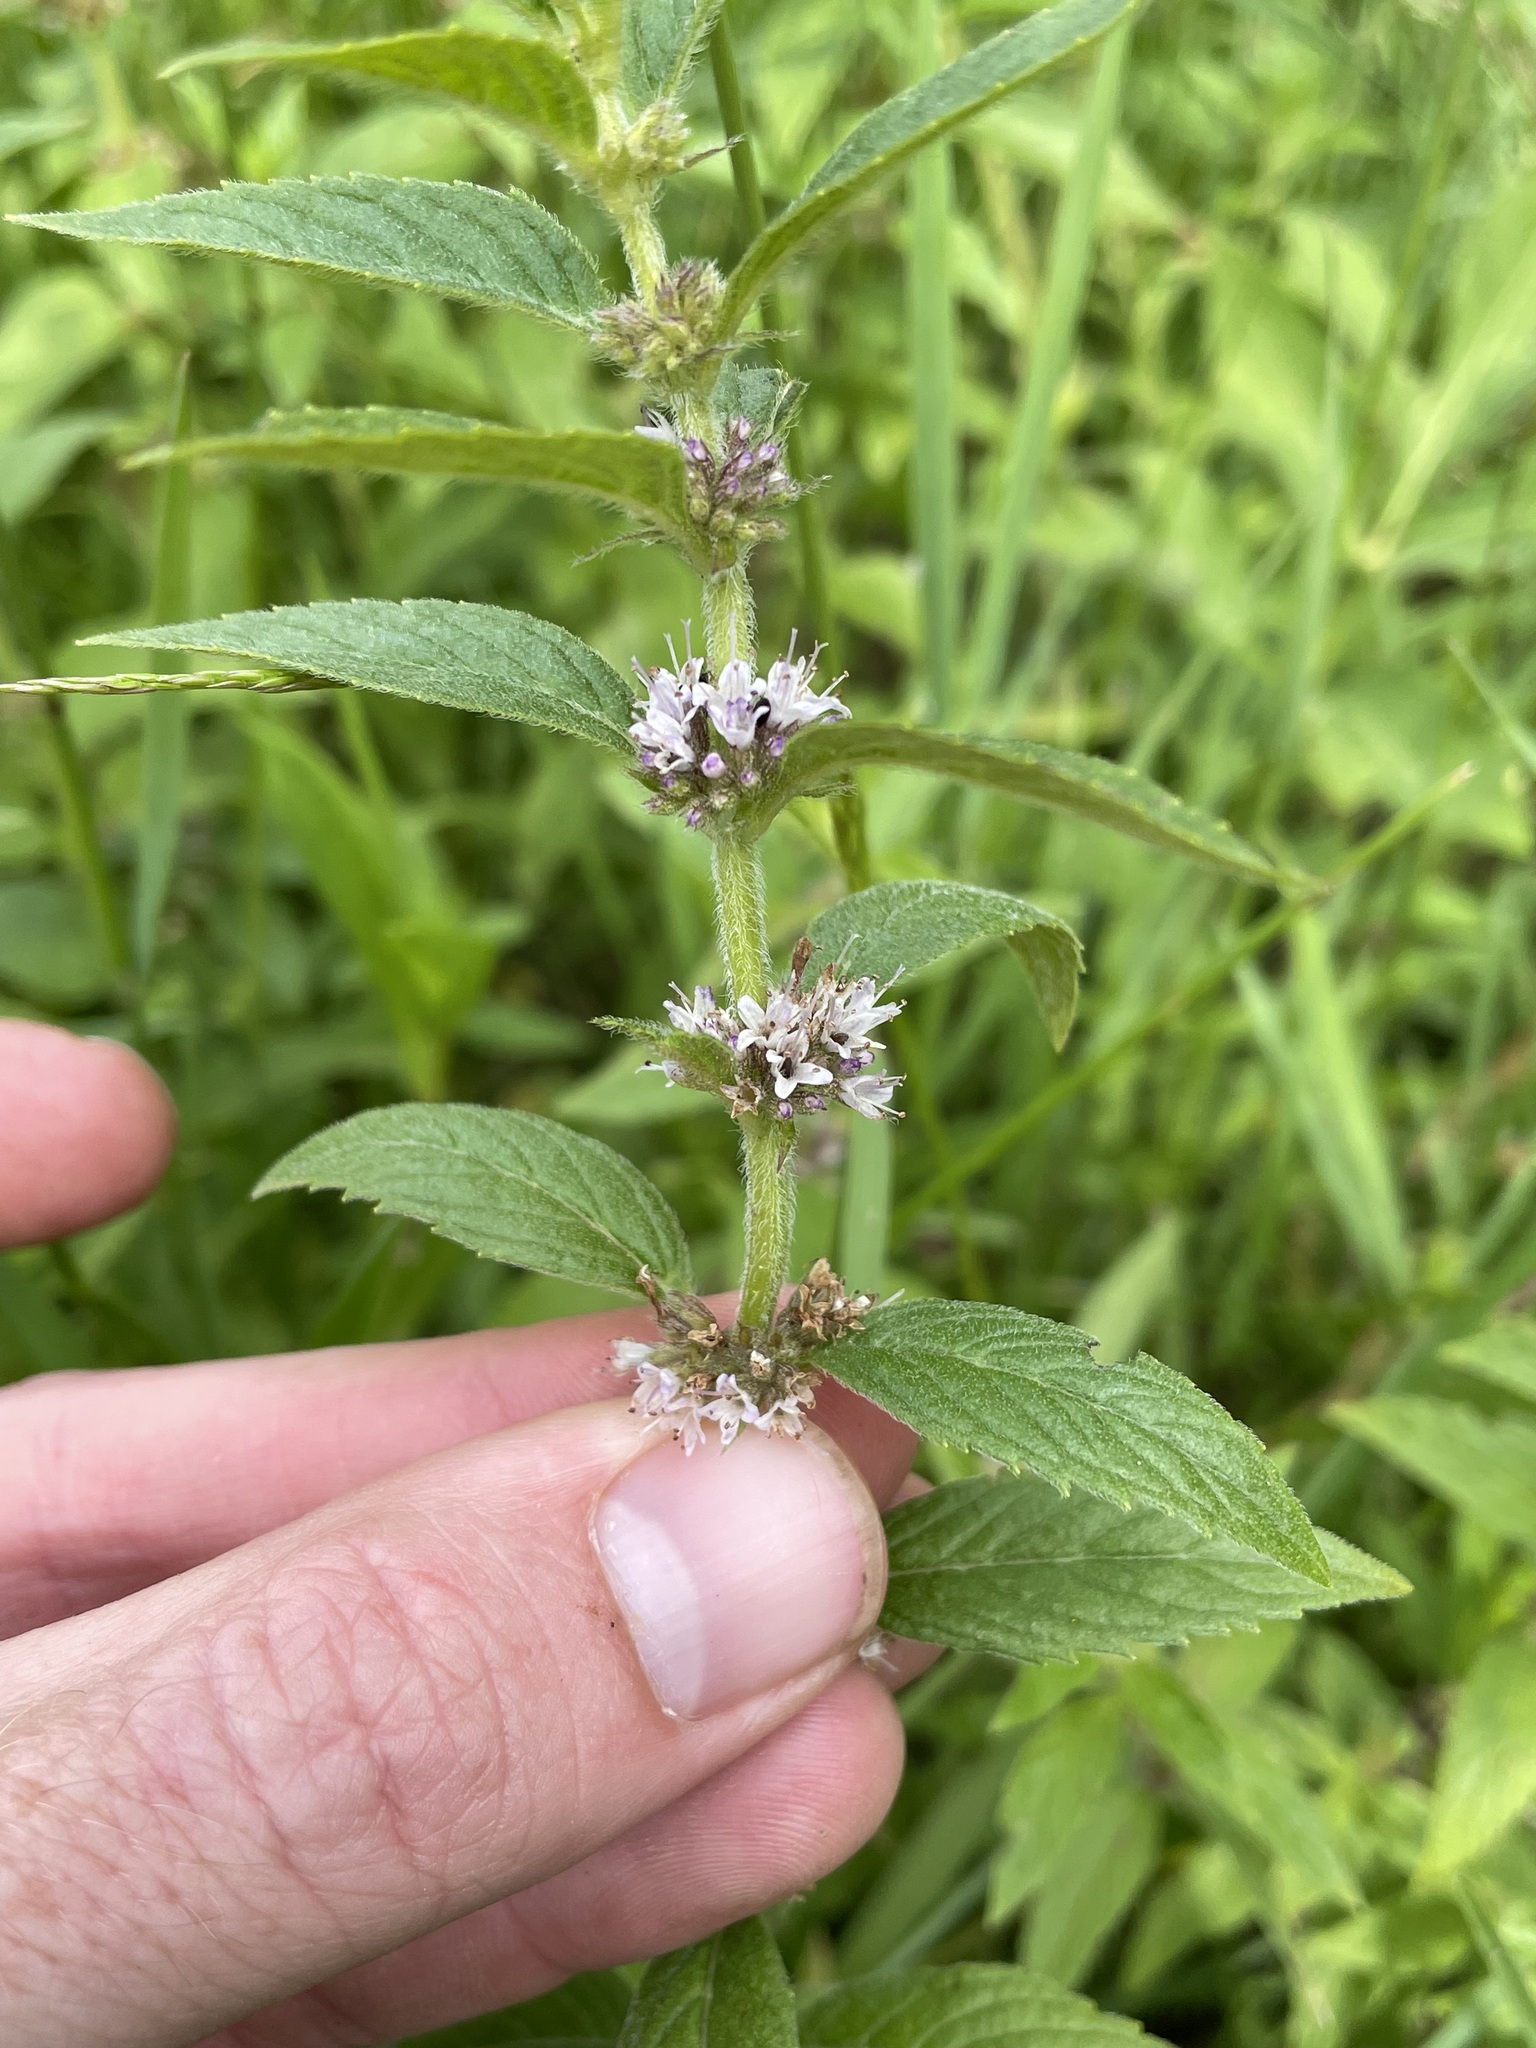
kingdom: Plantae
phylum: Tracheophyta
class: Magnoliopsida
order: Lamiales
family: Lamiaceae
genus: Mentha
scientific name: Mentha canadensis
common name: American corn mint
